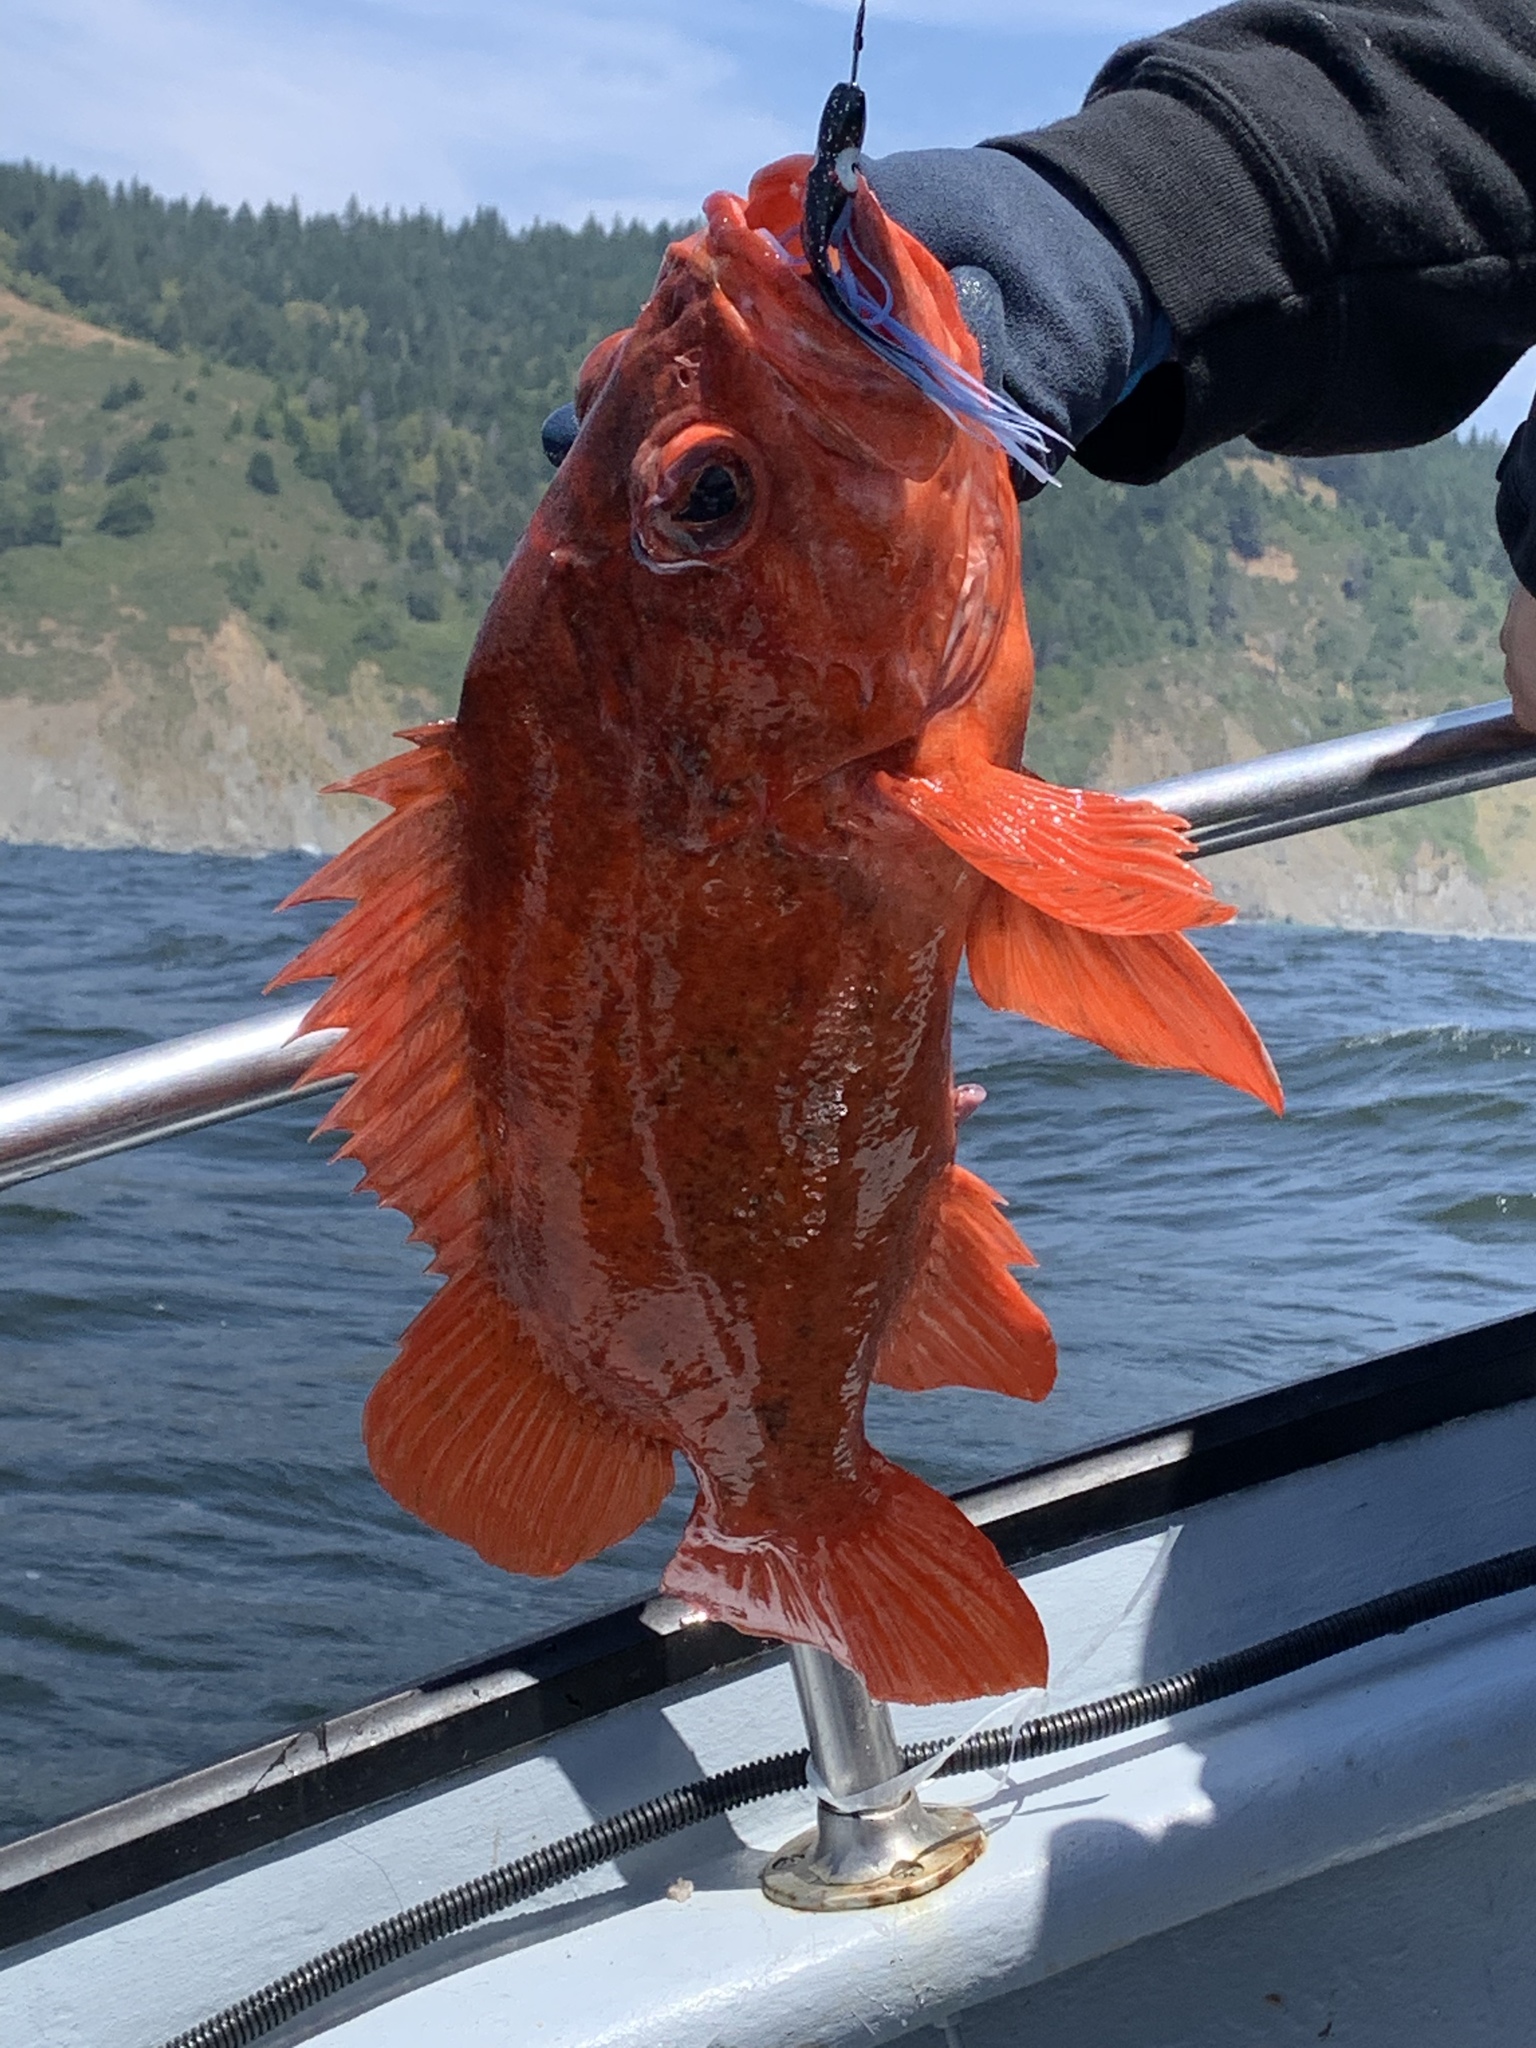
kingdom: Animalia
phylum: Chordata
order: Scorpaeniformes
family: Sebastidae
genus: Sebastes
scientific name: Sebastes miniatus
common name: Vermilion rockfish
